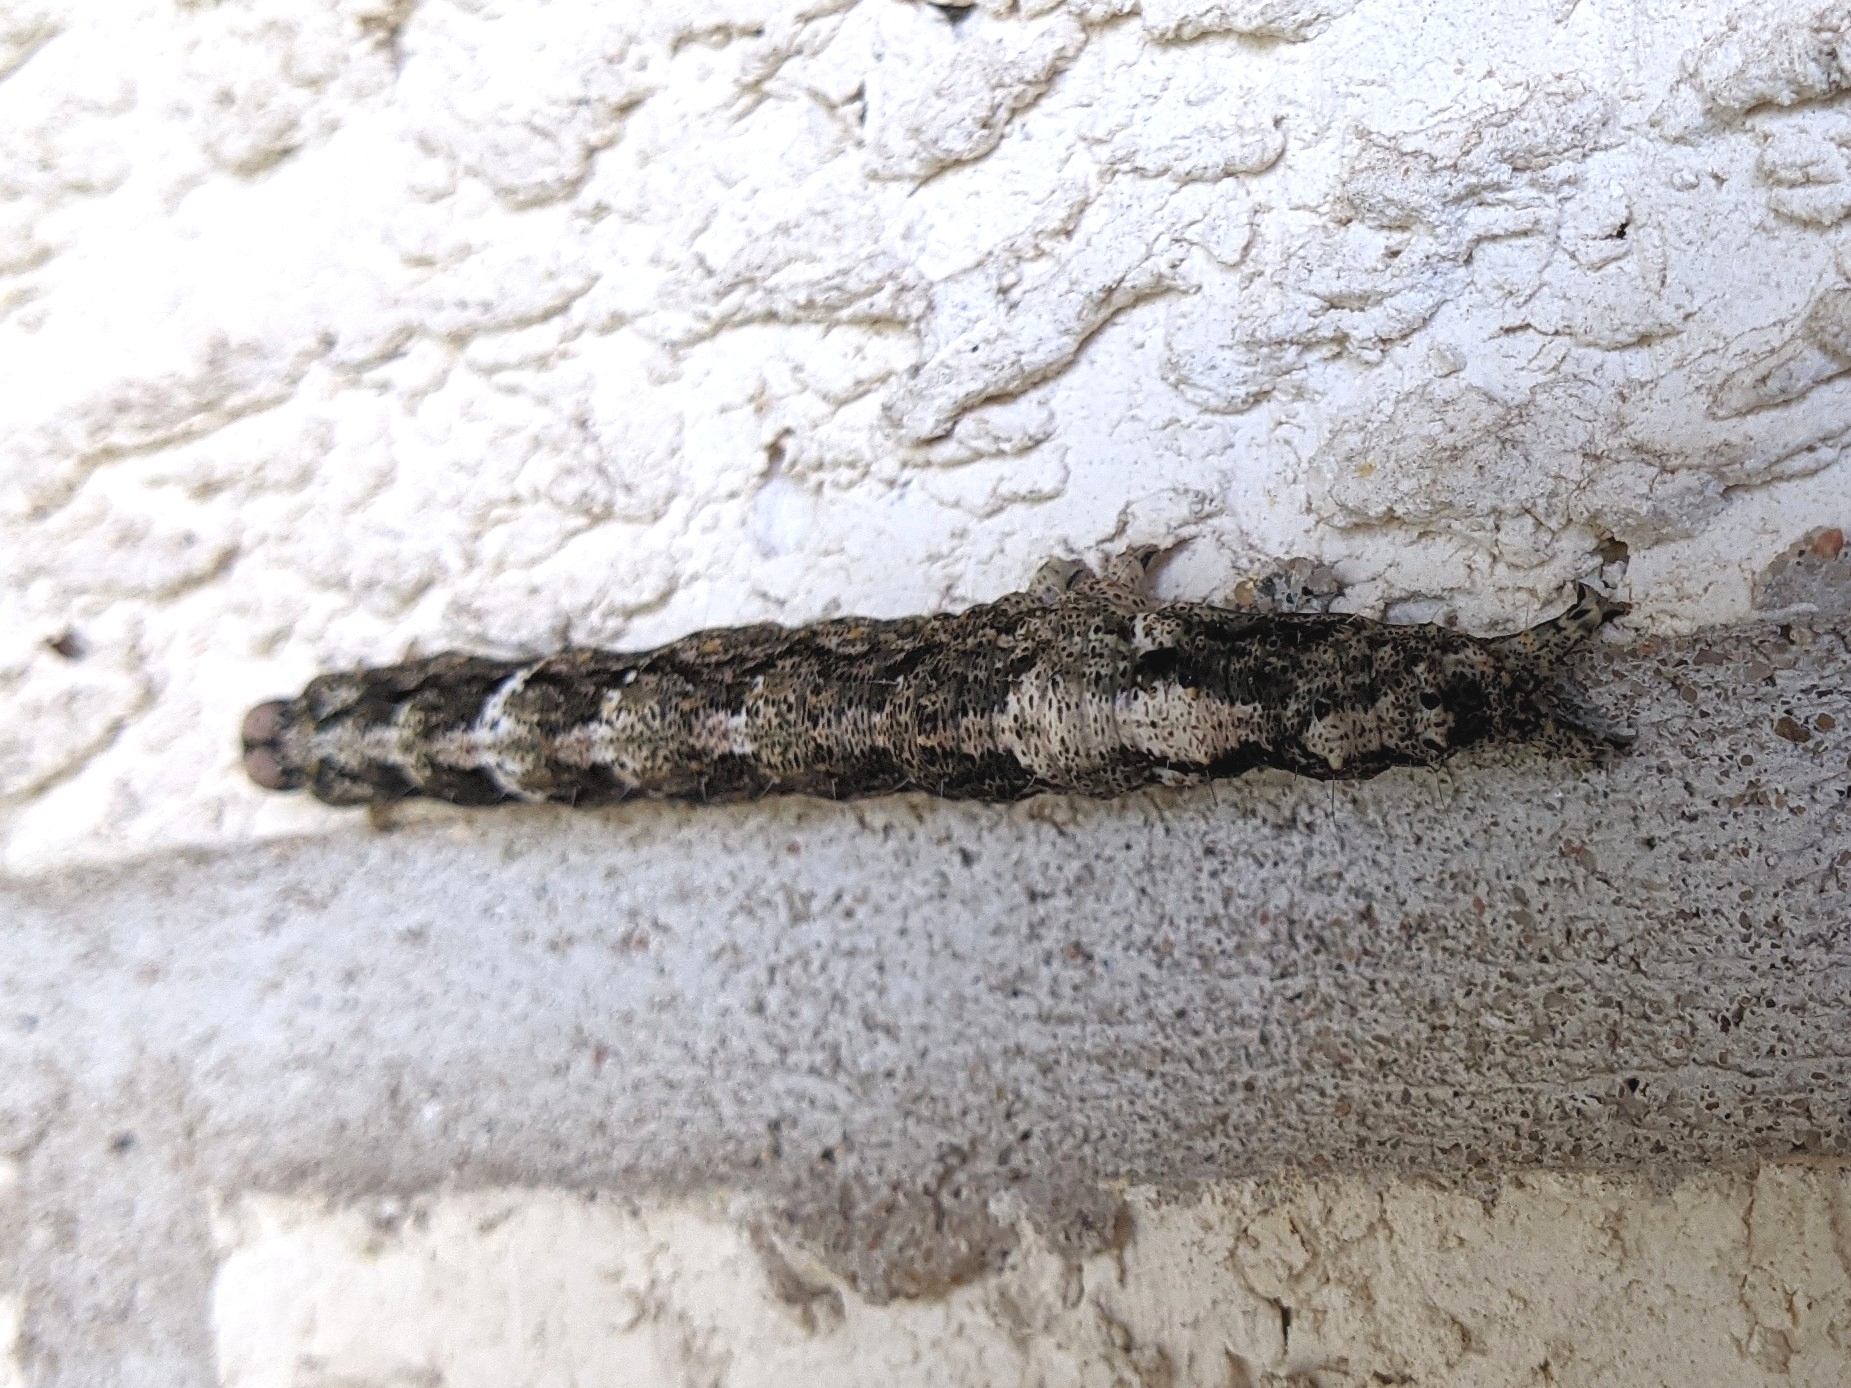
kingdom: Animalia
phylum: Arthropoda
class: Insecta
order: Lepidoptera
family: Erebidae
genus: Metria
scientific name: Metria amella
